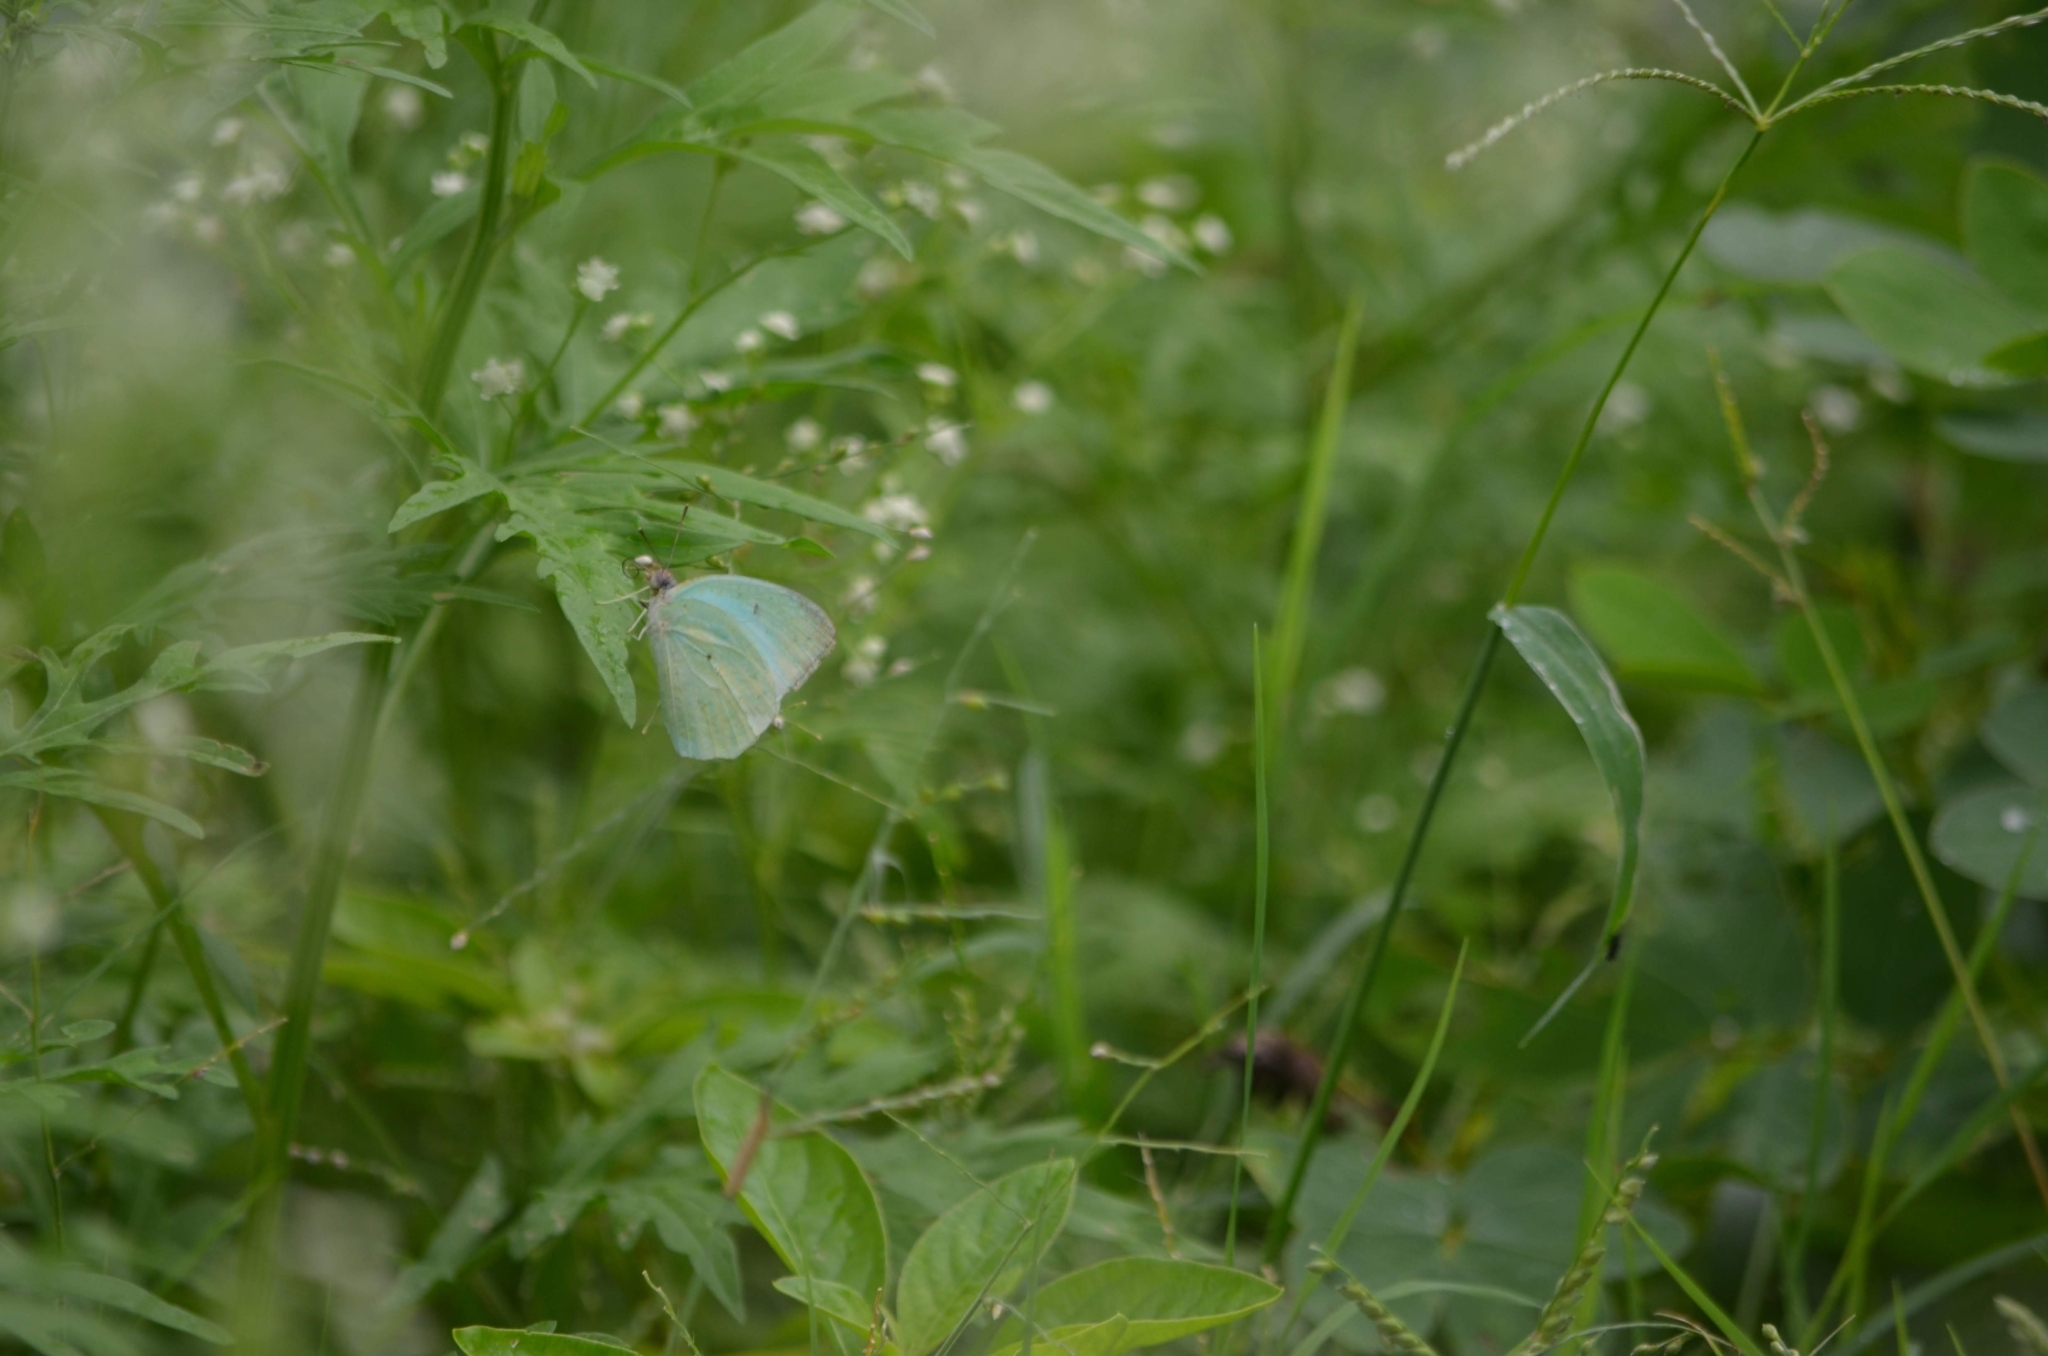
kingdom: Animalia
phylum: Arthropoda
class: Insecta
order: Lepidoptera
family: Pieridae
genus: Catopsilia
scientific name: Catopsilia pyranthe
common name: Mottled emigrant
